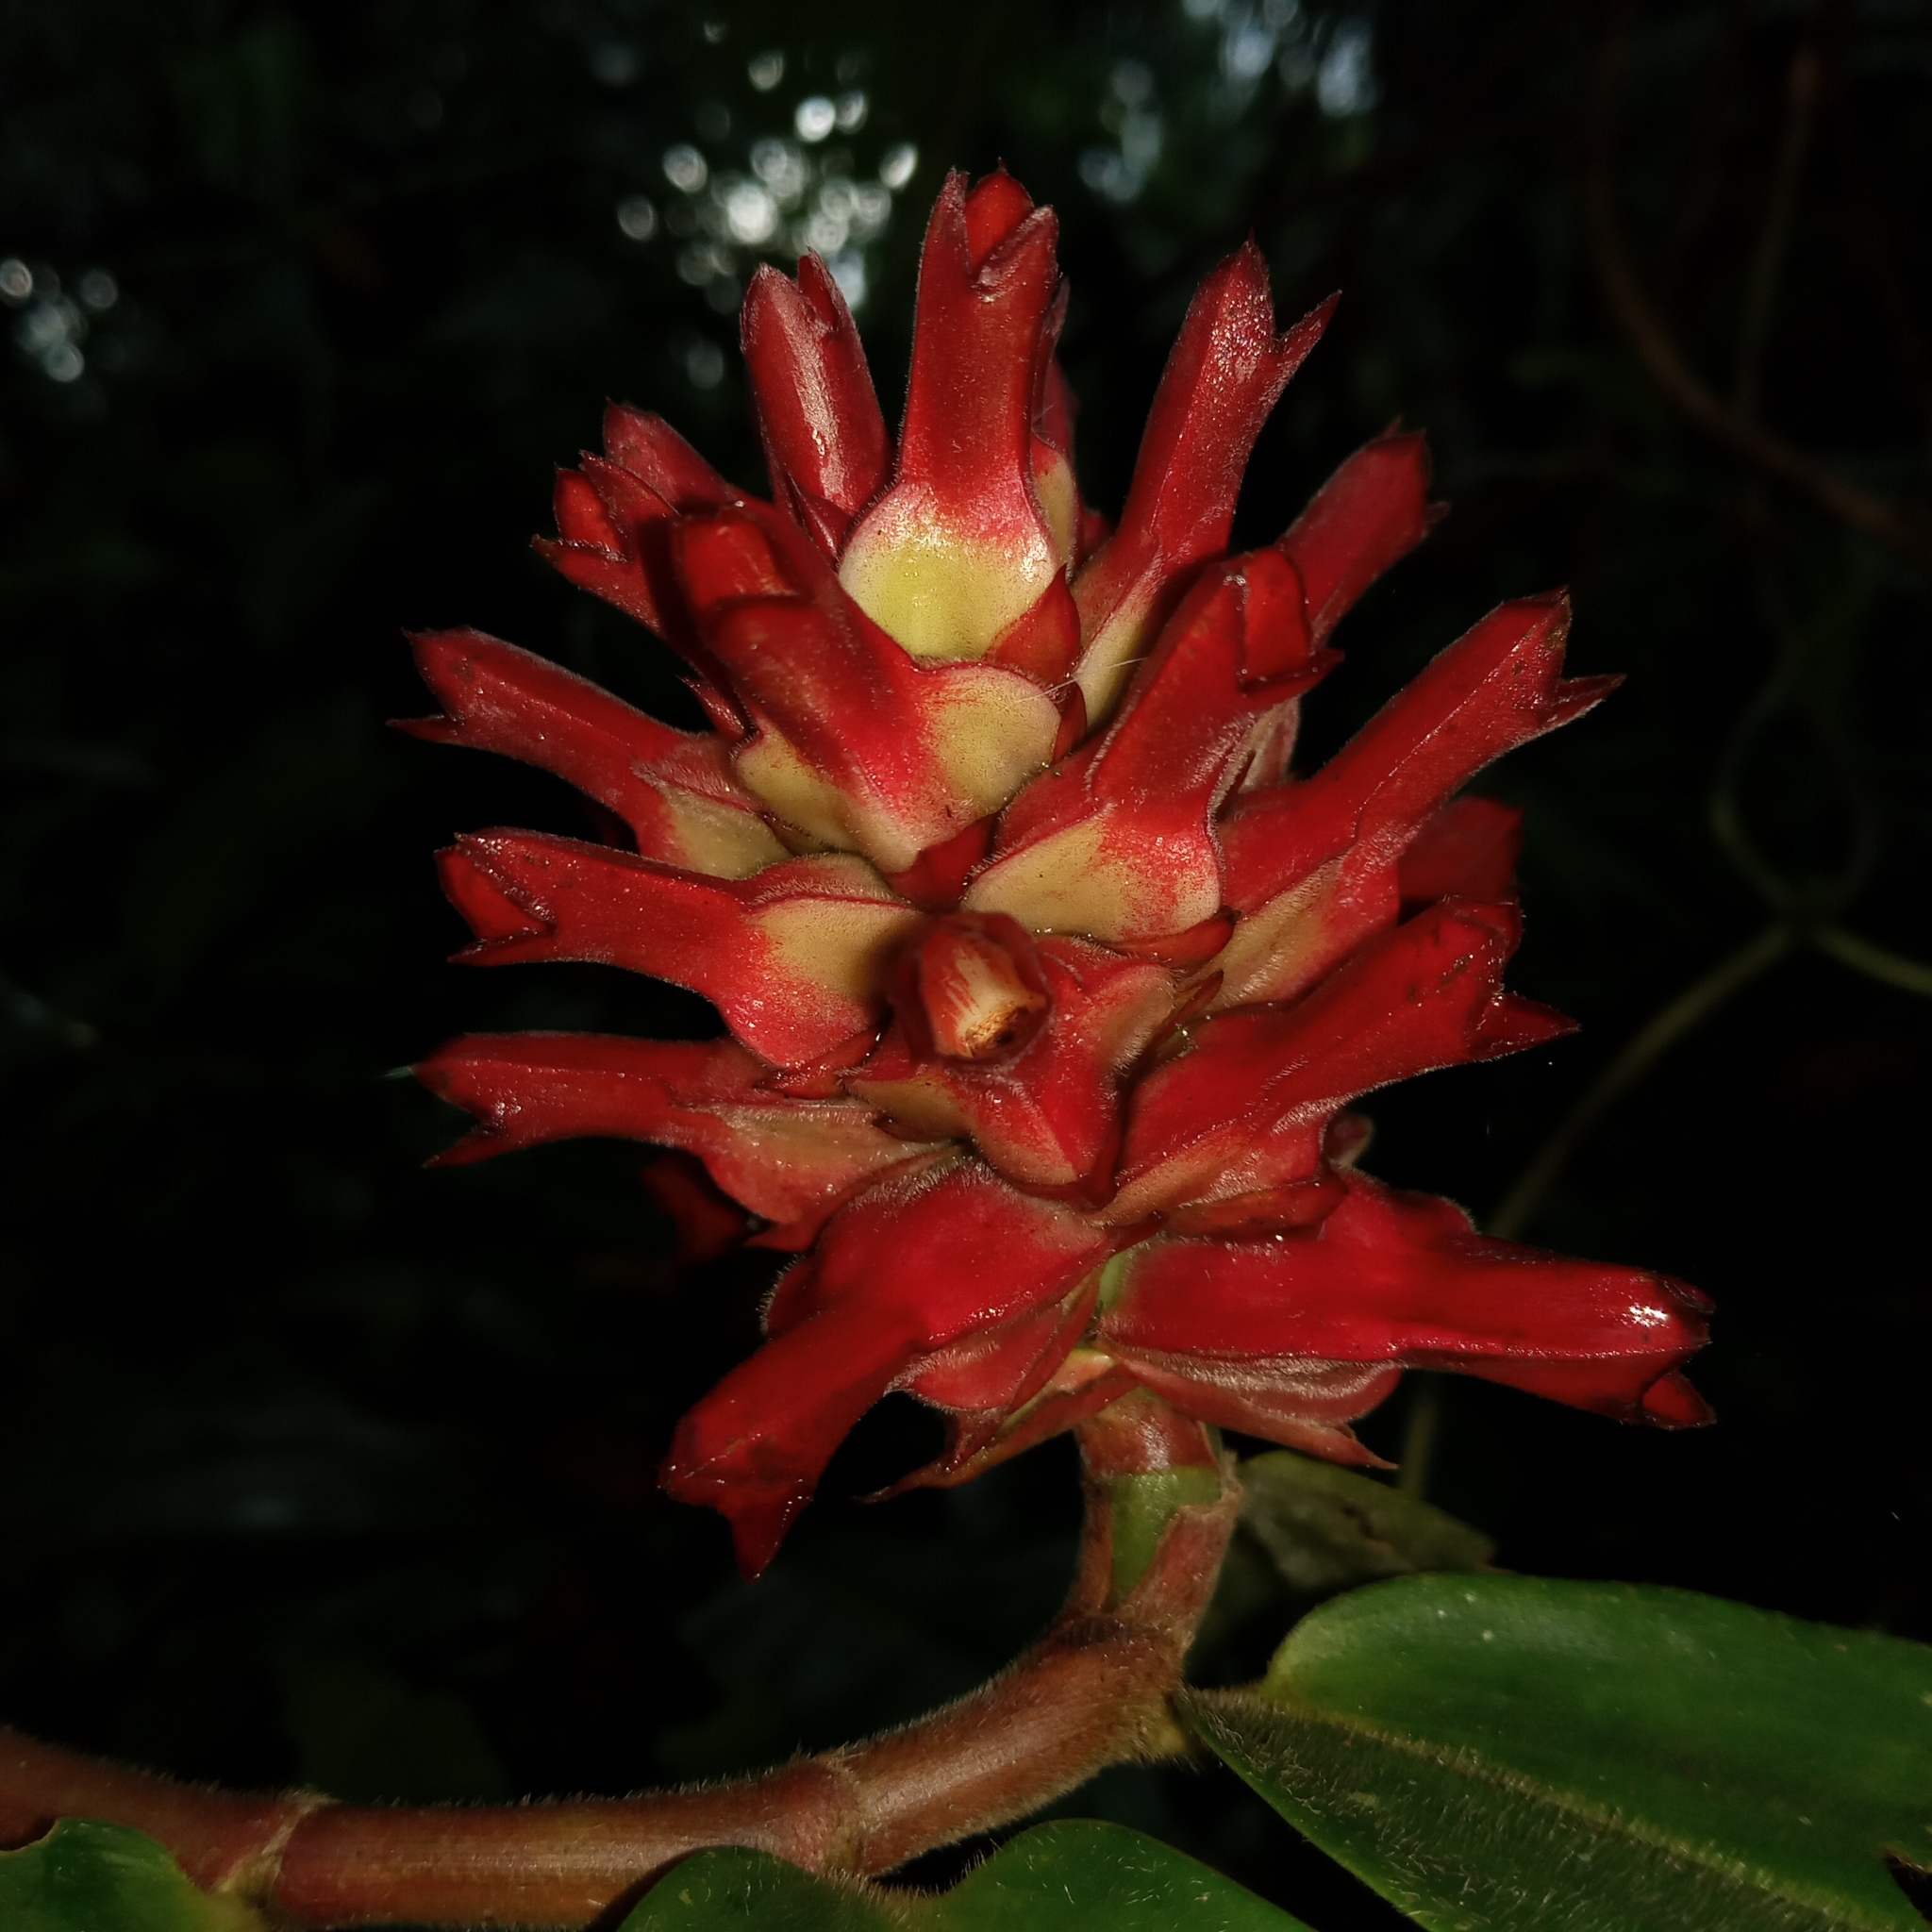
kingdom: Plantae
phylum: Tracheophyta
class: Liliopsida
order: Zingiberales
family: Costaceae
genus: Hellenia
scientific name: Hellenia speciosa
